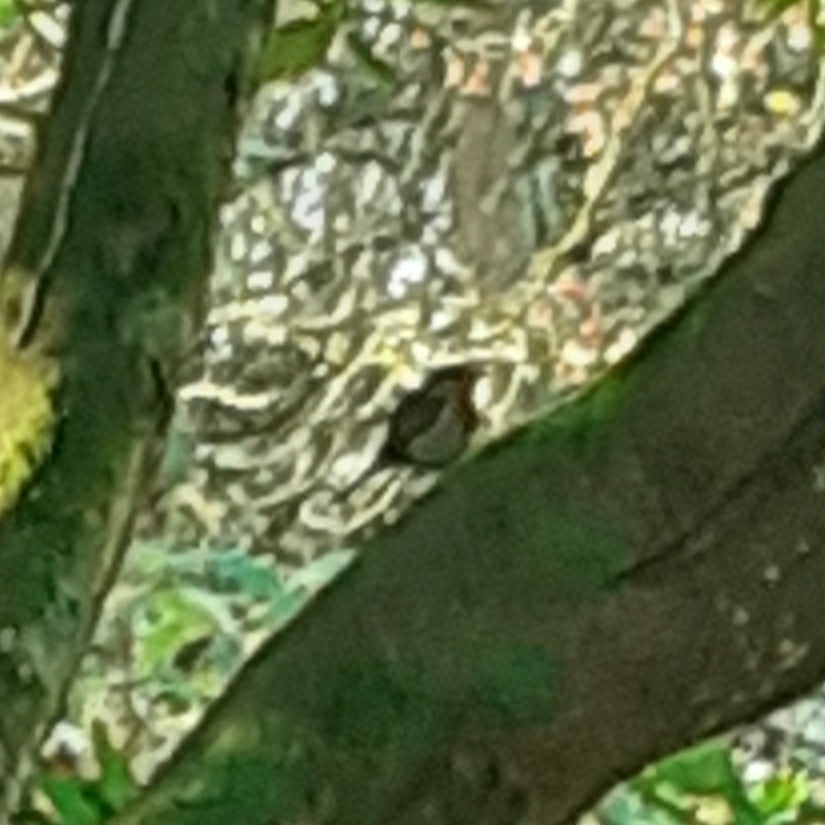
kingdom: Animalia
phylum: Chordata
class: Aves
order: Passeriformes
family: Muscicapidae
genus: Erithacus
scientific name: Erithacus rubecula
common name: European robin
